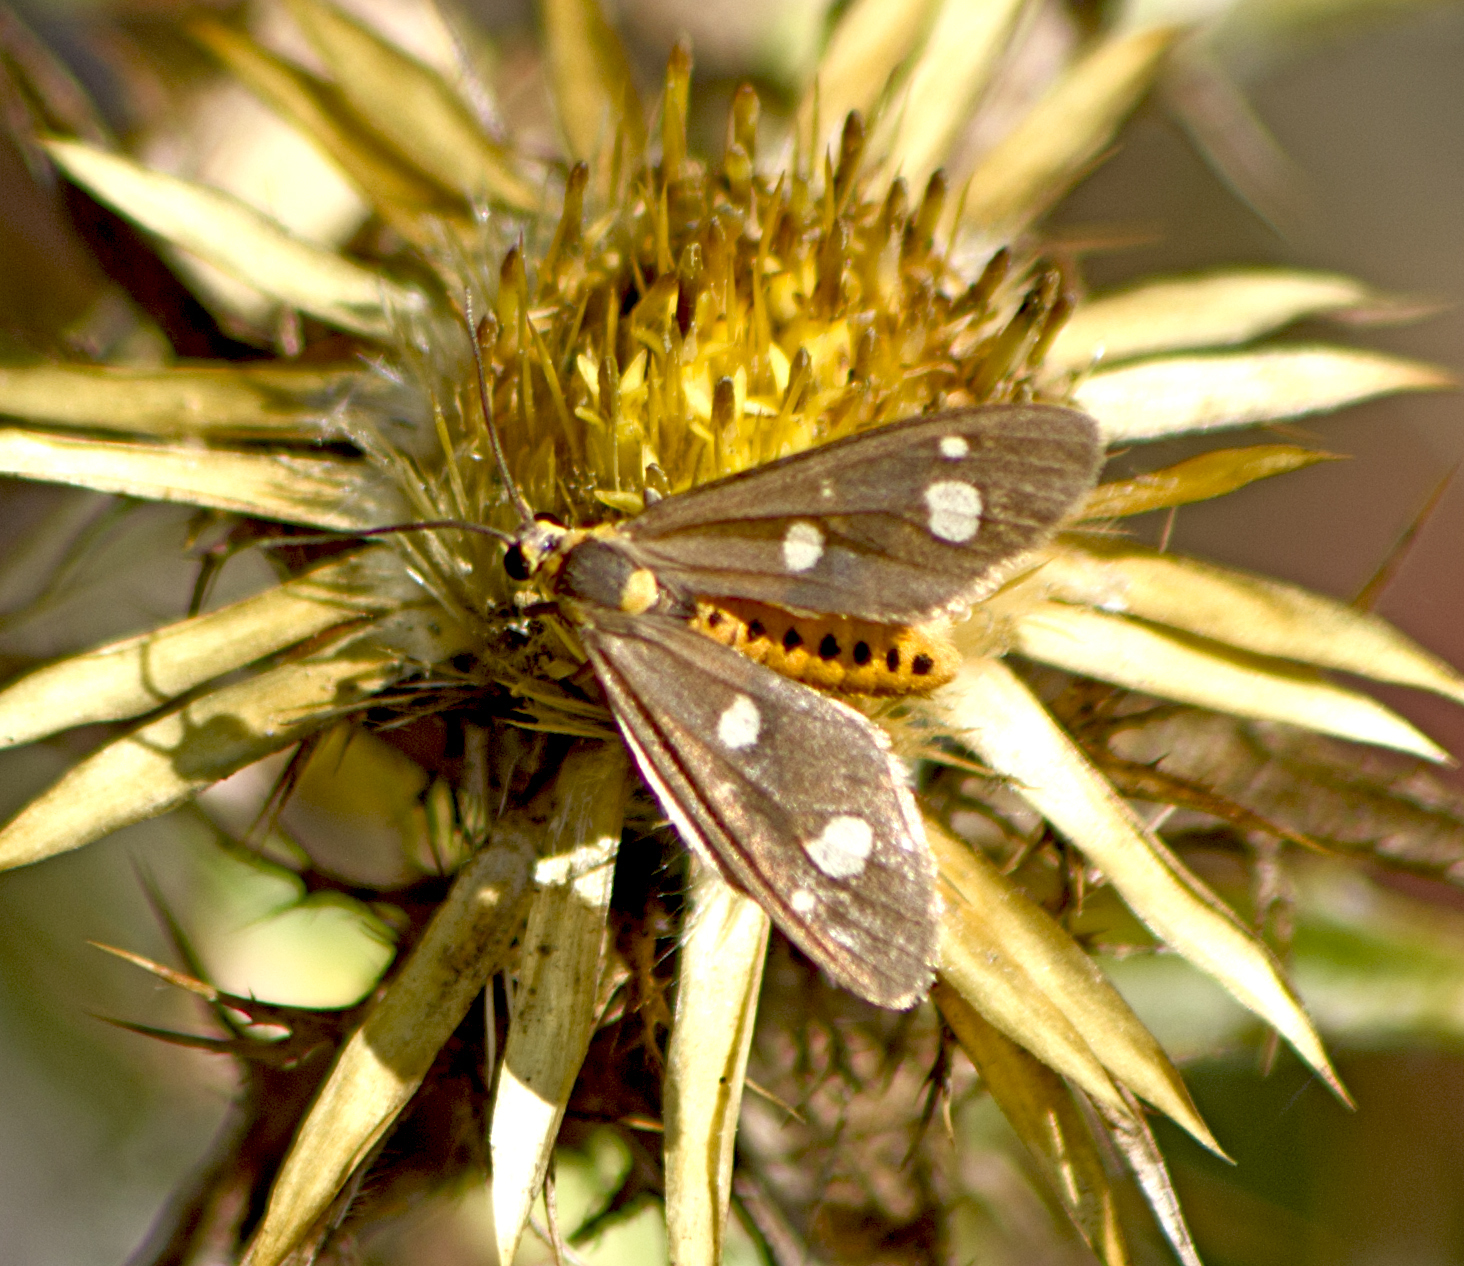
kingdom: Animalia
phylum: Arthropoda
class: Insecta
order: Lepidoptera
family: Erebidae
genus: Dysauxes
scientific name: Dysauxes punctata
